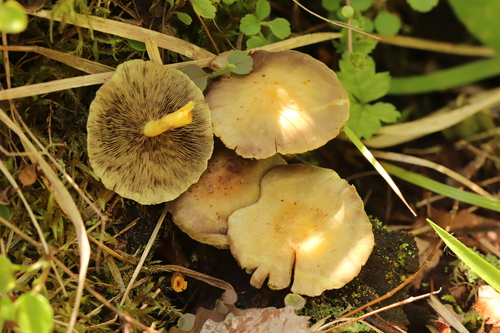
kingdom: Fungi
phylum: Basidiomycota
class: Agaricomycetes
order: Agaricales
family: Strophariaceae
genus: Hypholoma
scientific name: Hypholoma fasciculare
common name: Sulphur tuft
